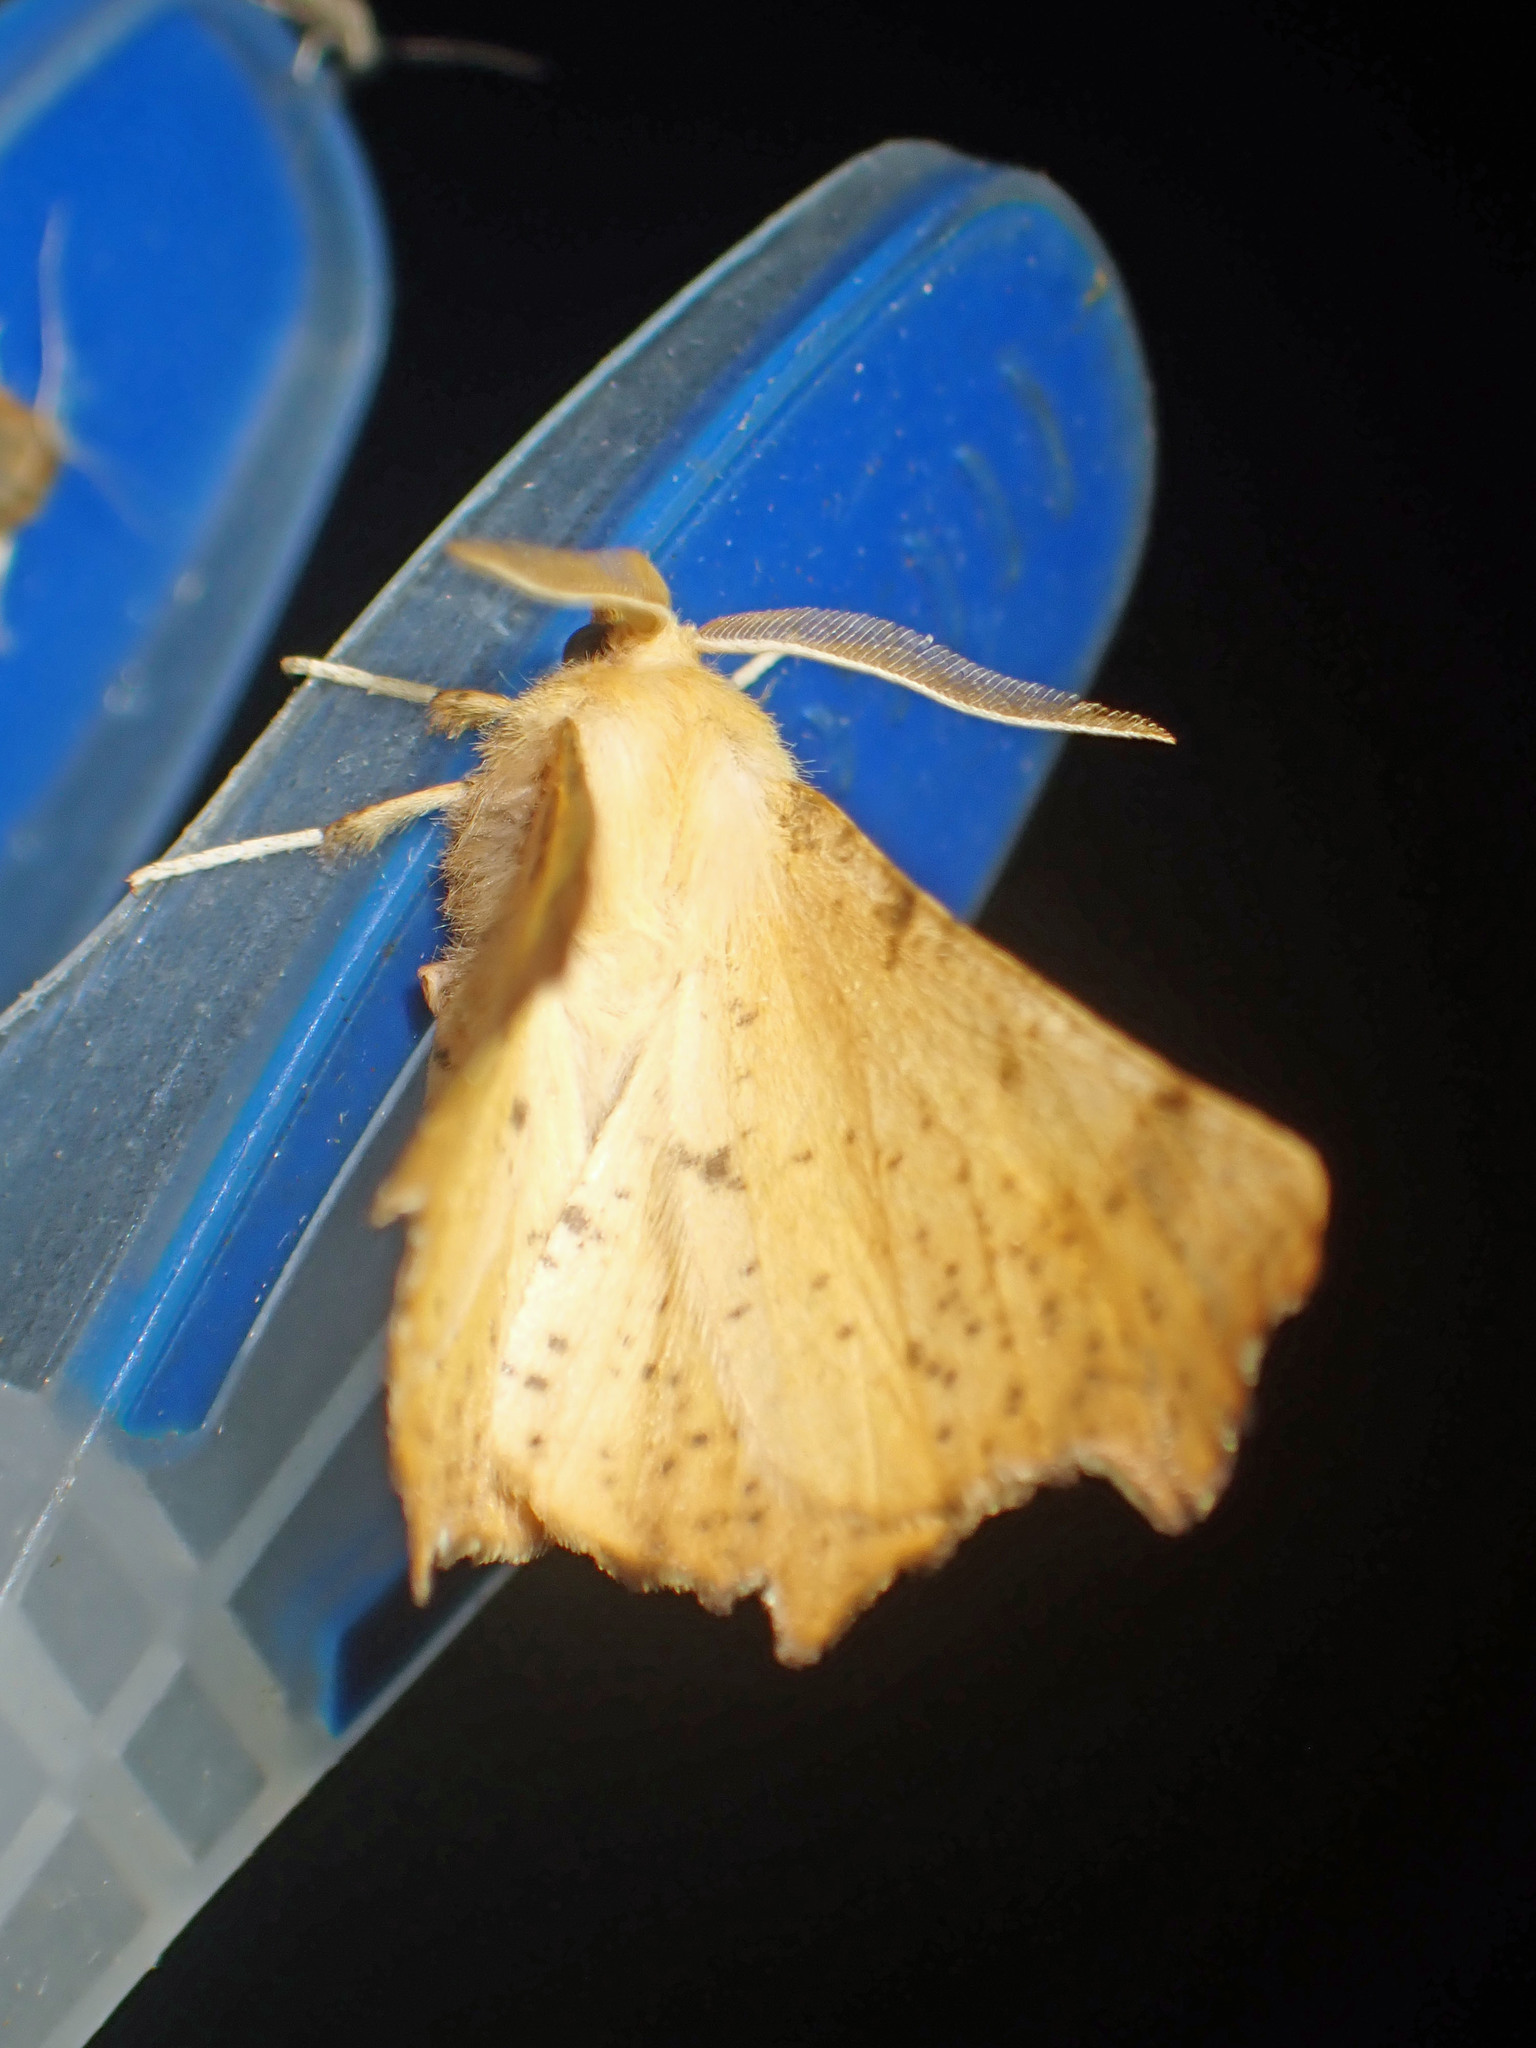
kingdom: Animalia
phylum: Arthropoda
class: Insecta
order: Lepidoptera
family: Geometridae
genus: Ennomos
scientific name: Ennomos magnaria
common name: Maple spanworm
